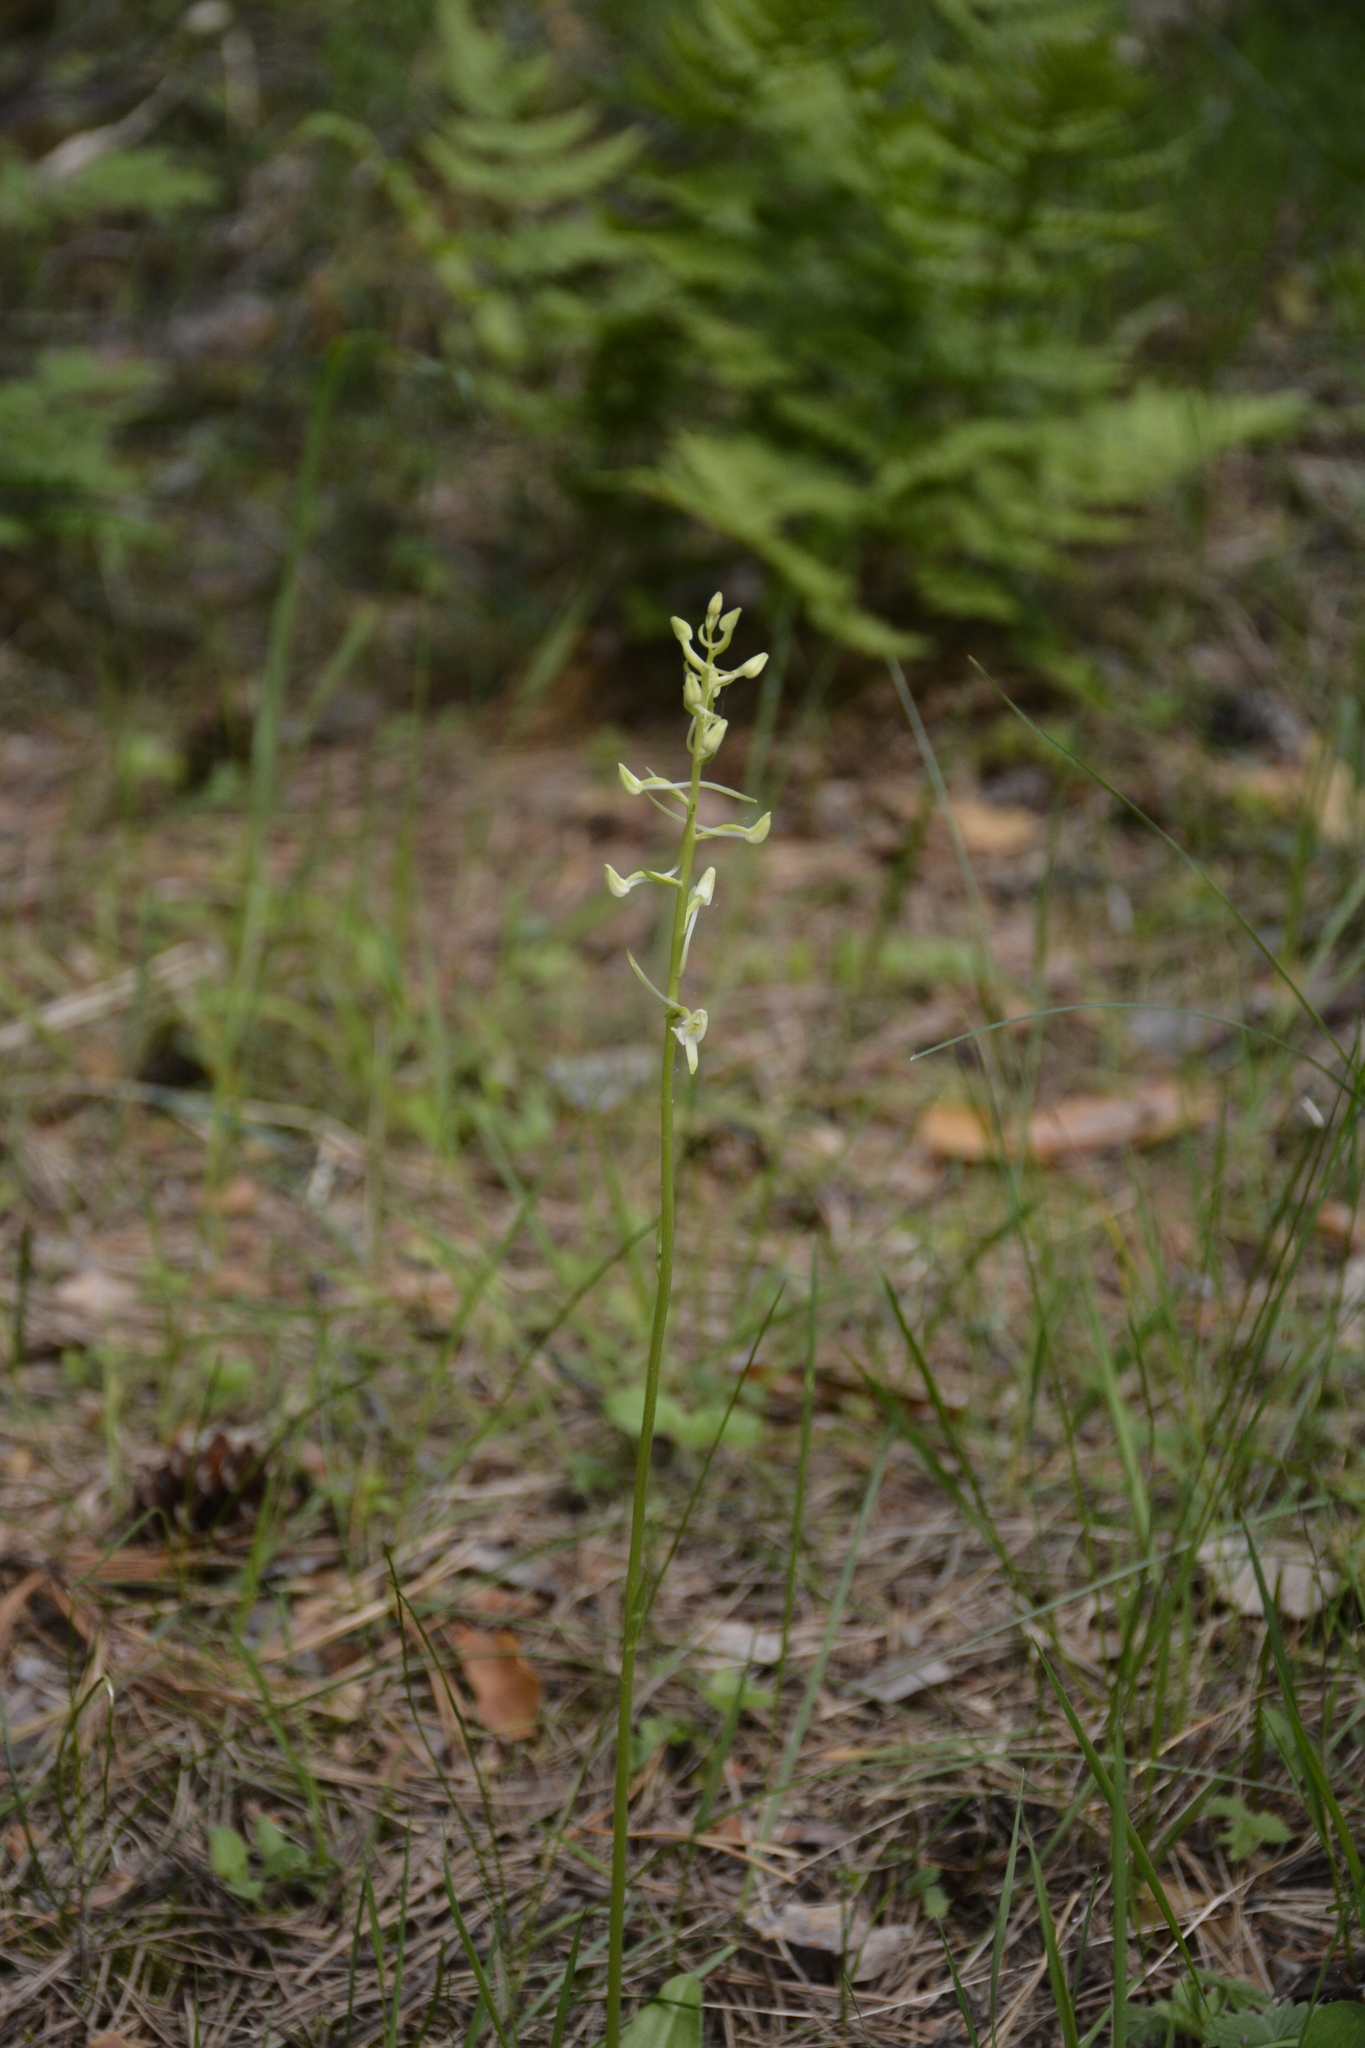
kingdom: Plantae
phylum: Tracheophyta
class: Liliopsida
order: Asparagales
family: Orchidaceae
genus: Platanthera
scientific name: Platanthera bifolia
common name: Lesser butterfly-orchid
